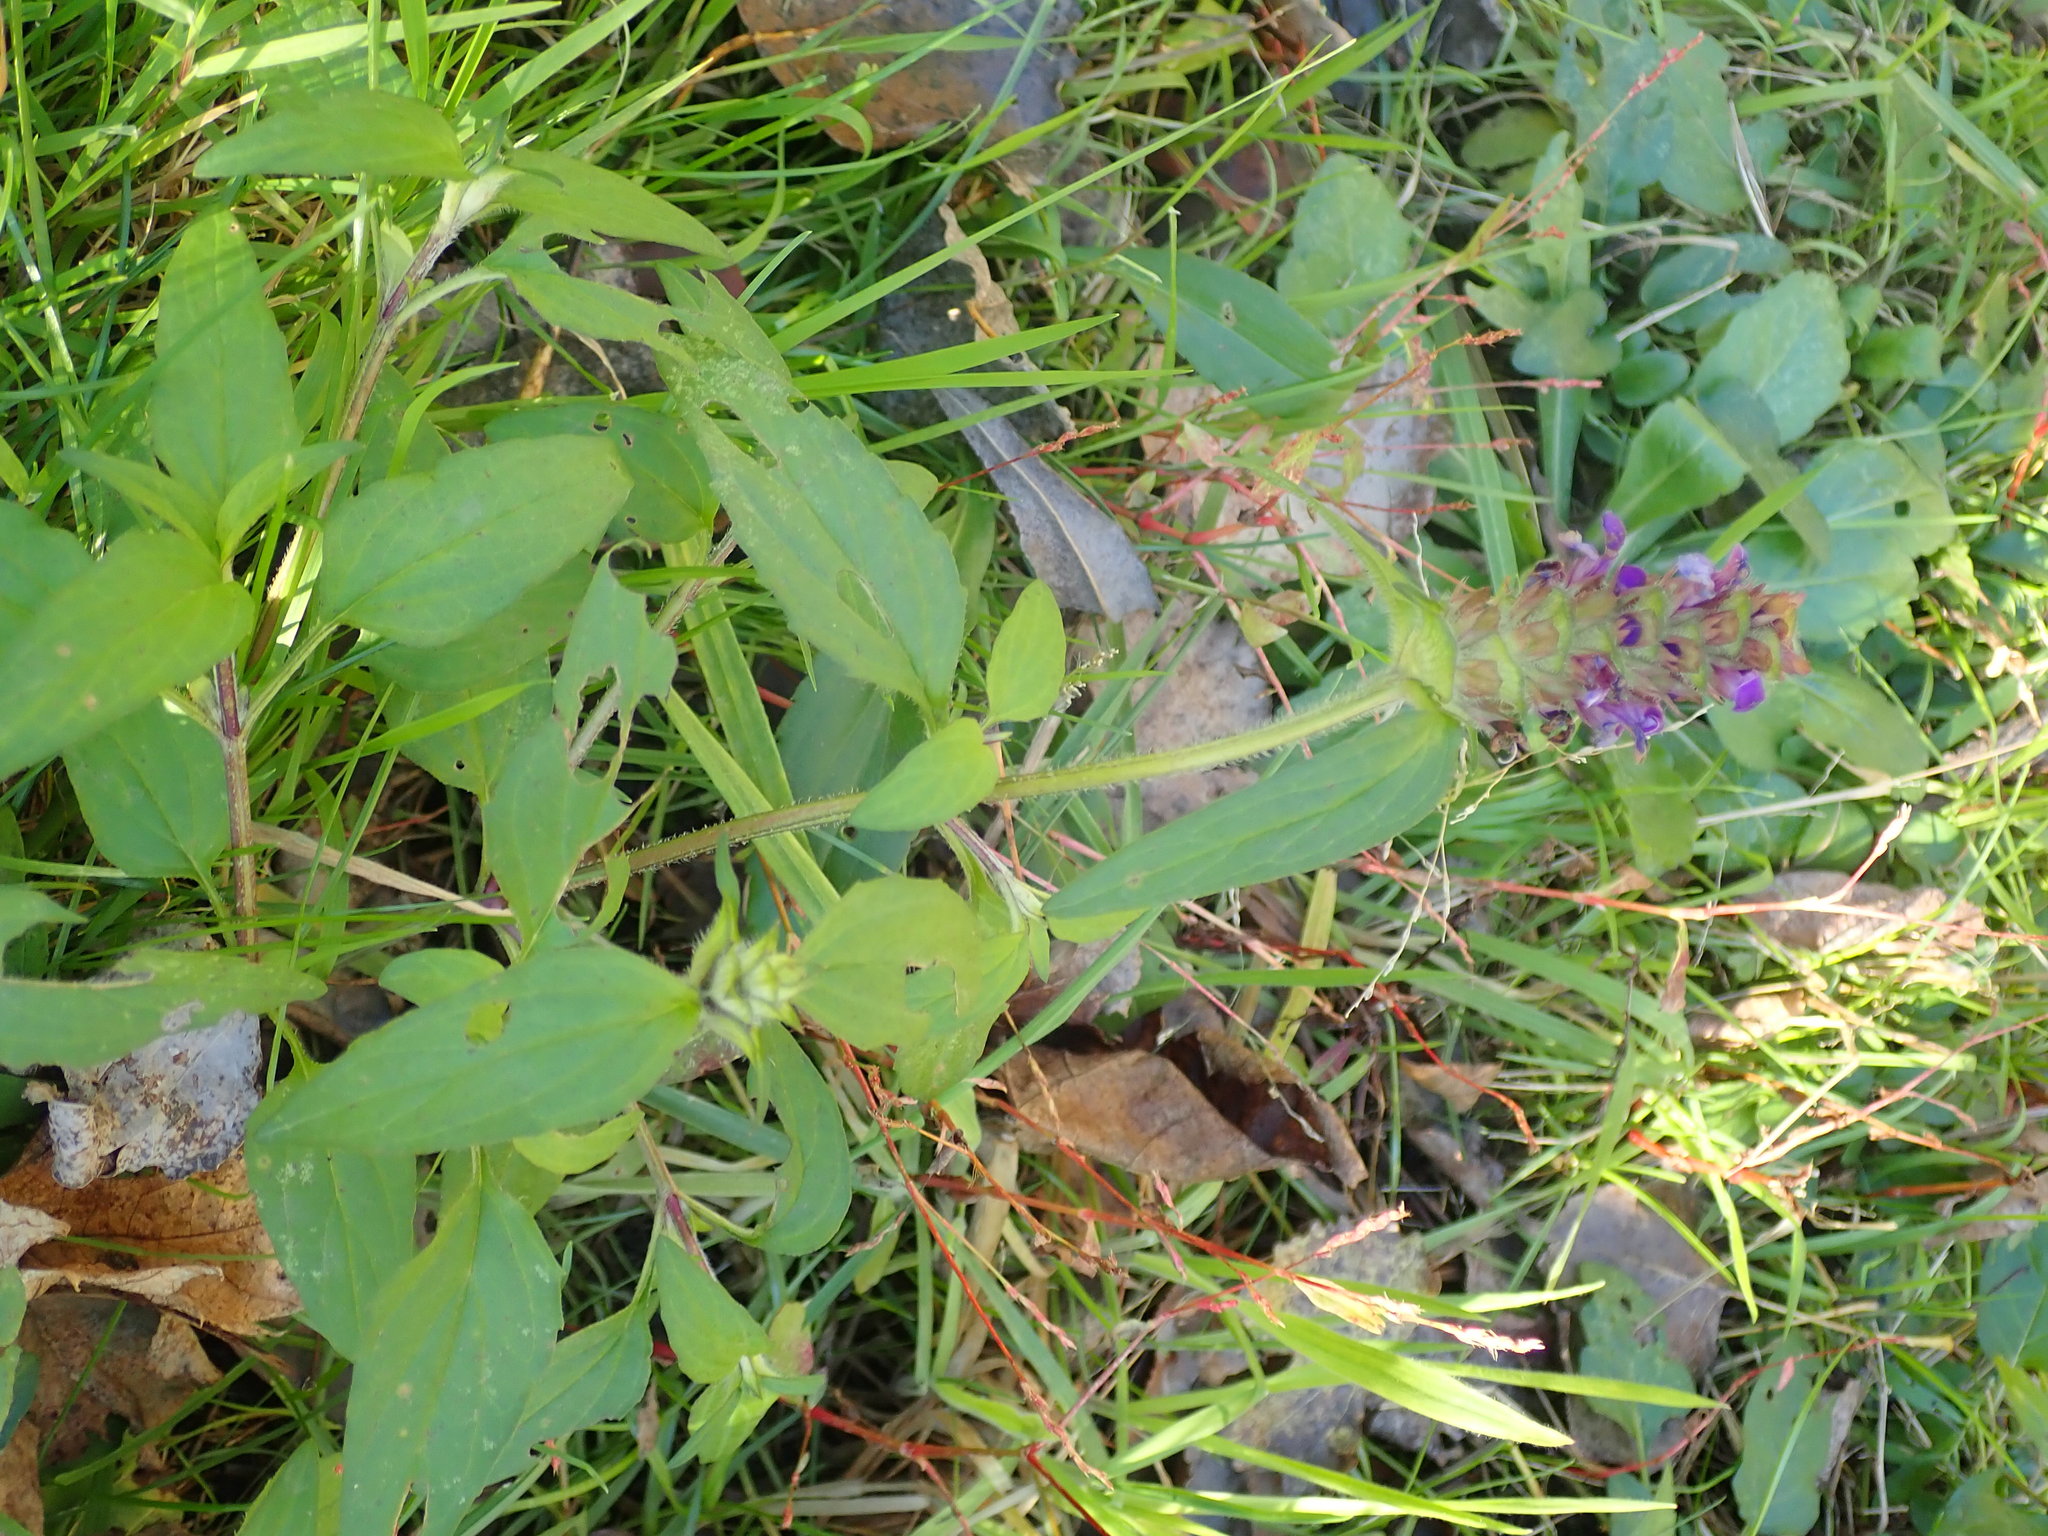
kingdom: Plantae
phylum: Tracheophyta
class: Magnoliopsida
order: Lamiales
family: Lamiaceae
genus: Prunella
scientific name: Prunella vulgaris
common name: Heal-all
